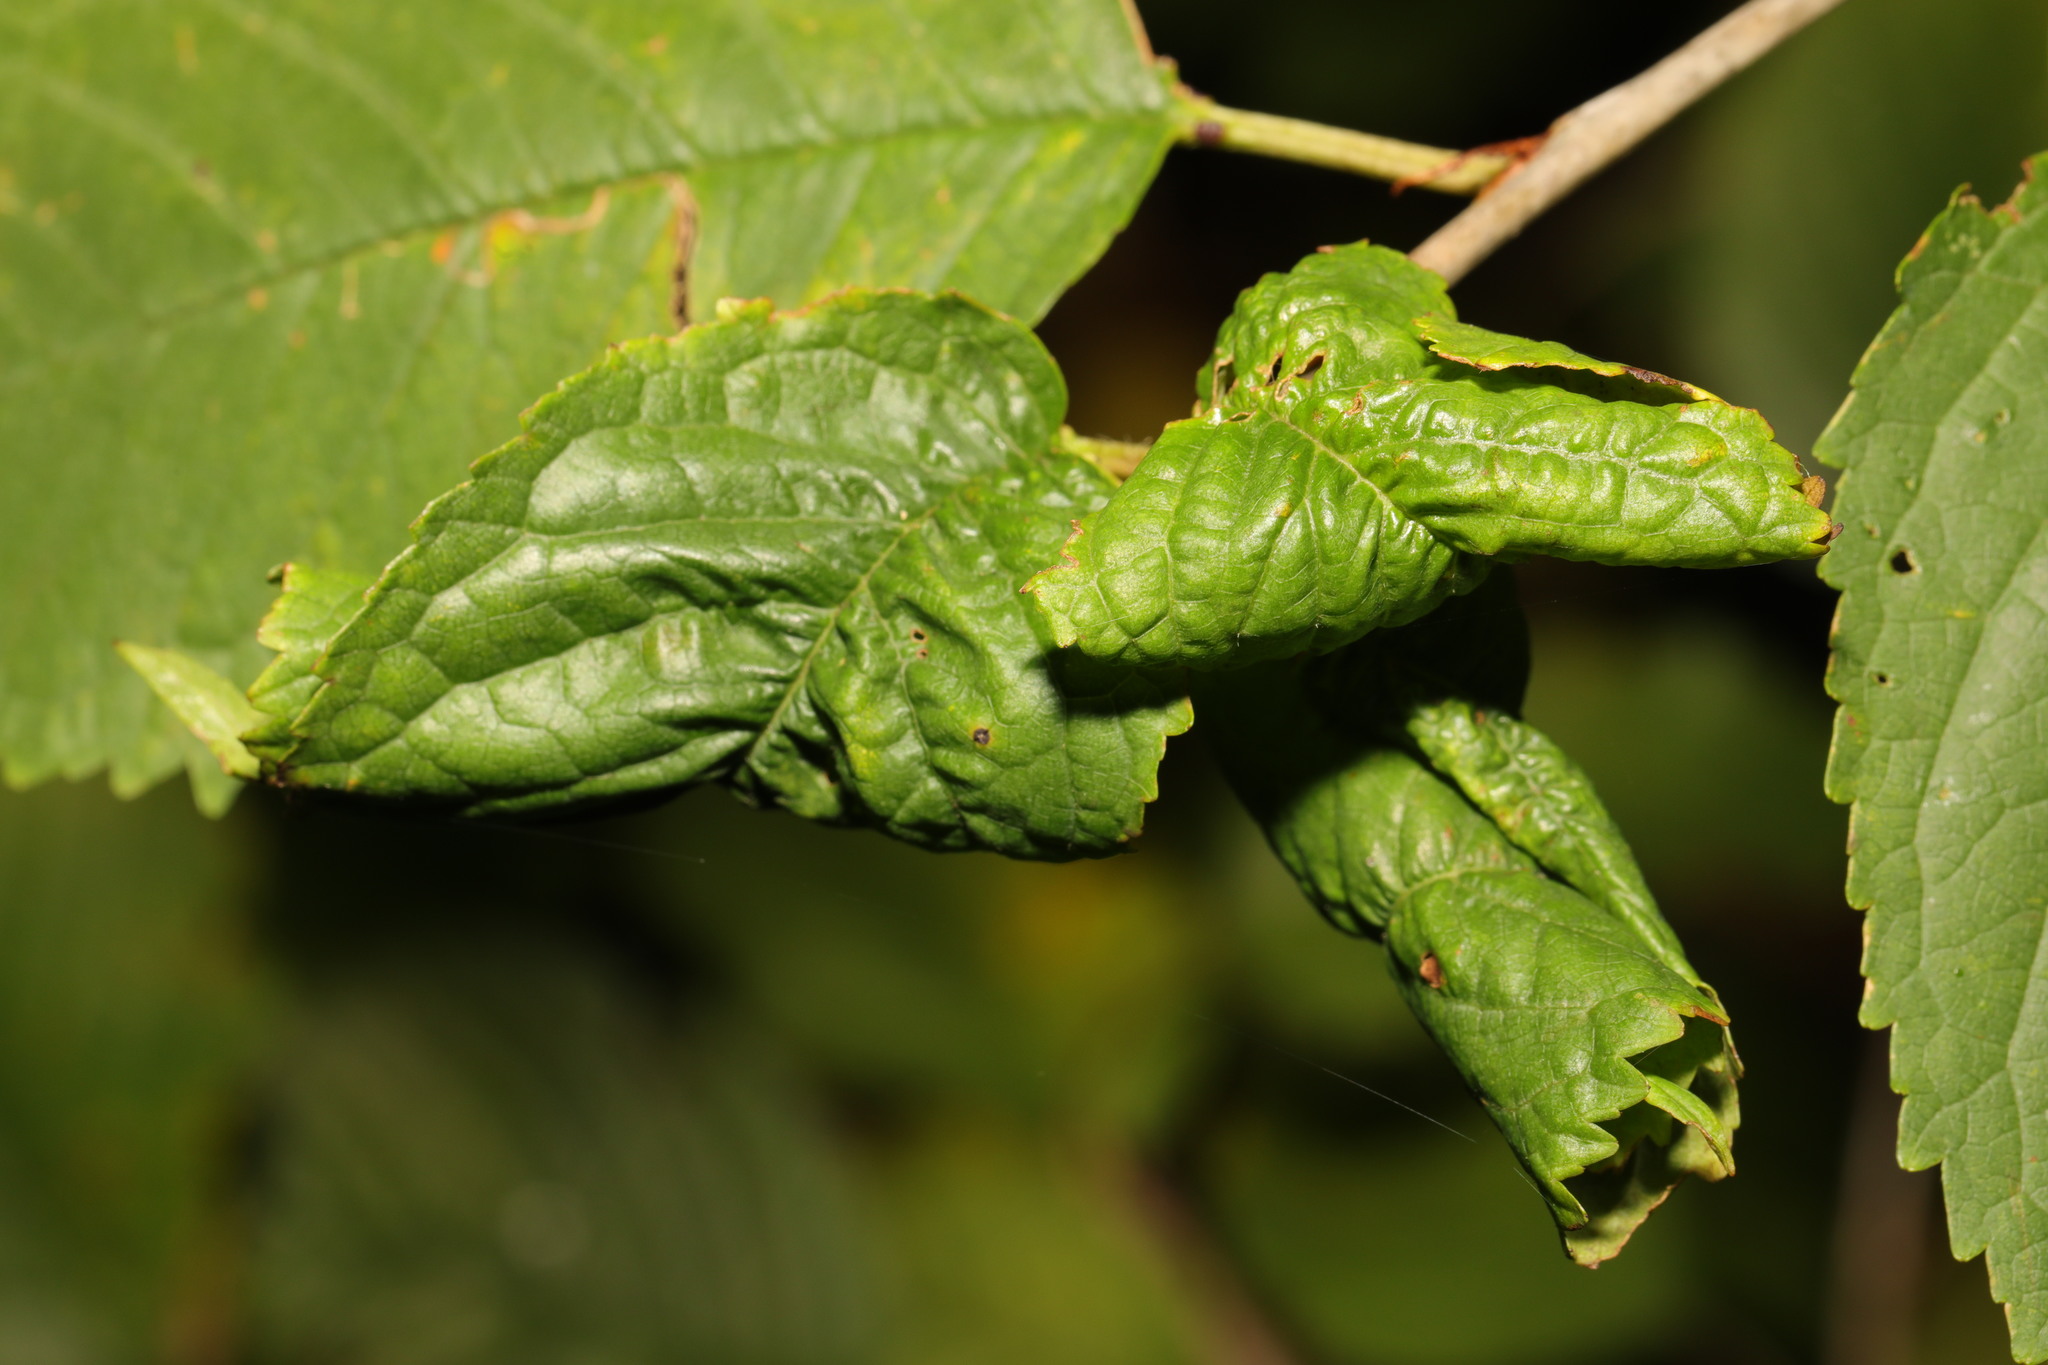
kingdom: Animalia
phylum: Arthropoda
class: Insecta
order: Hemiptera
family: Aphididae
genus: Myzus
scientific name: Myzus cerasi
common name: Black cherry aphid
